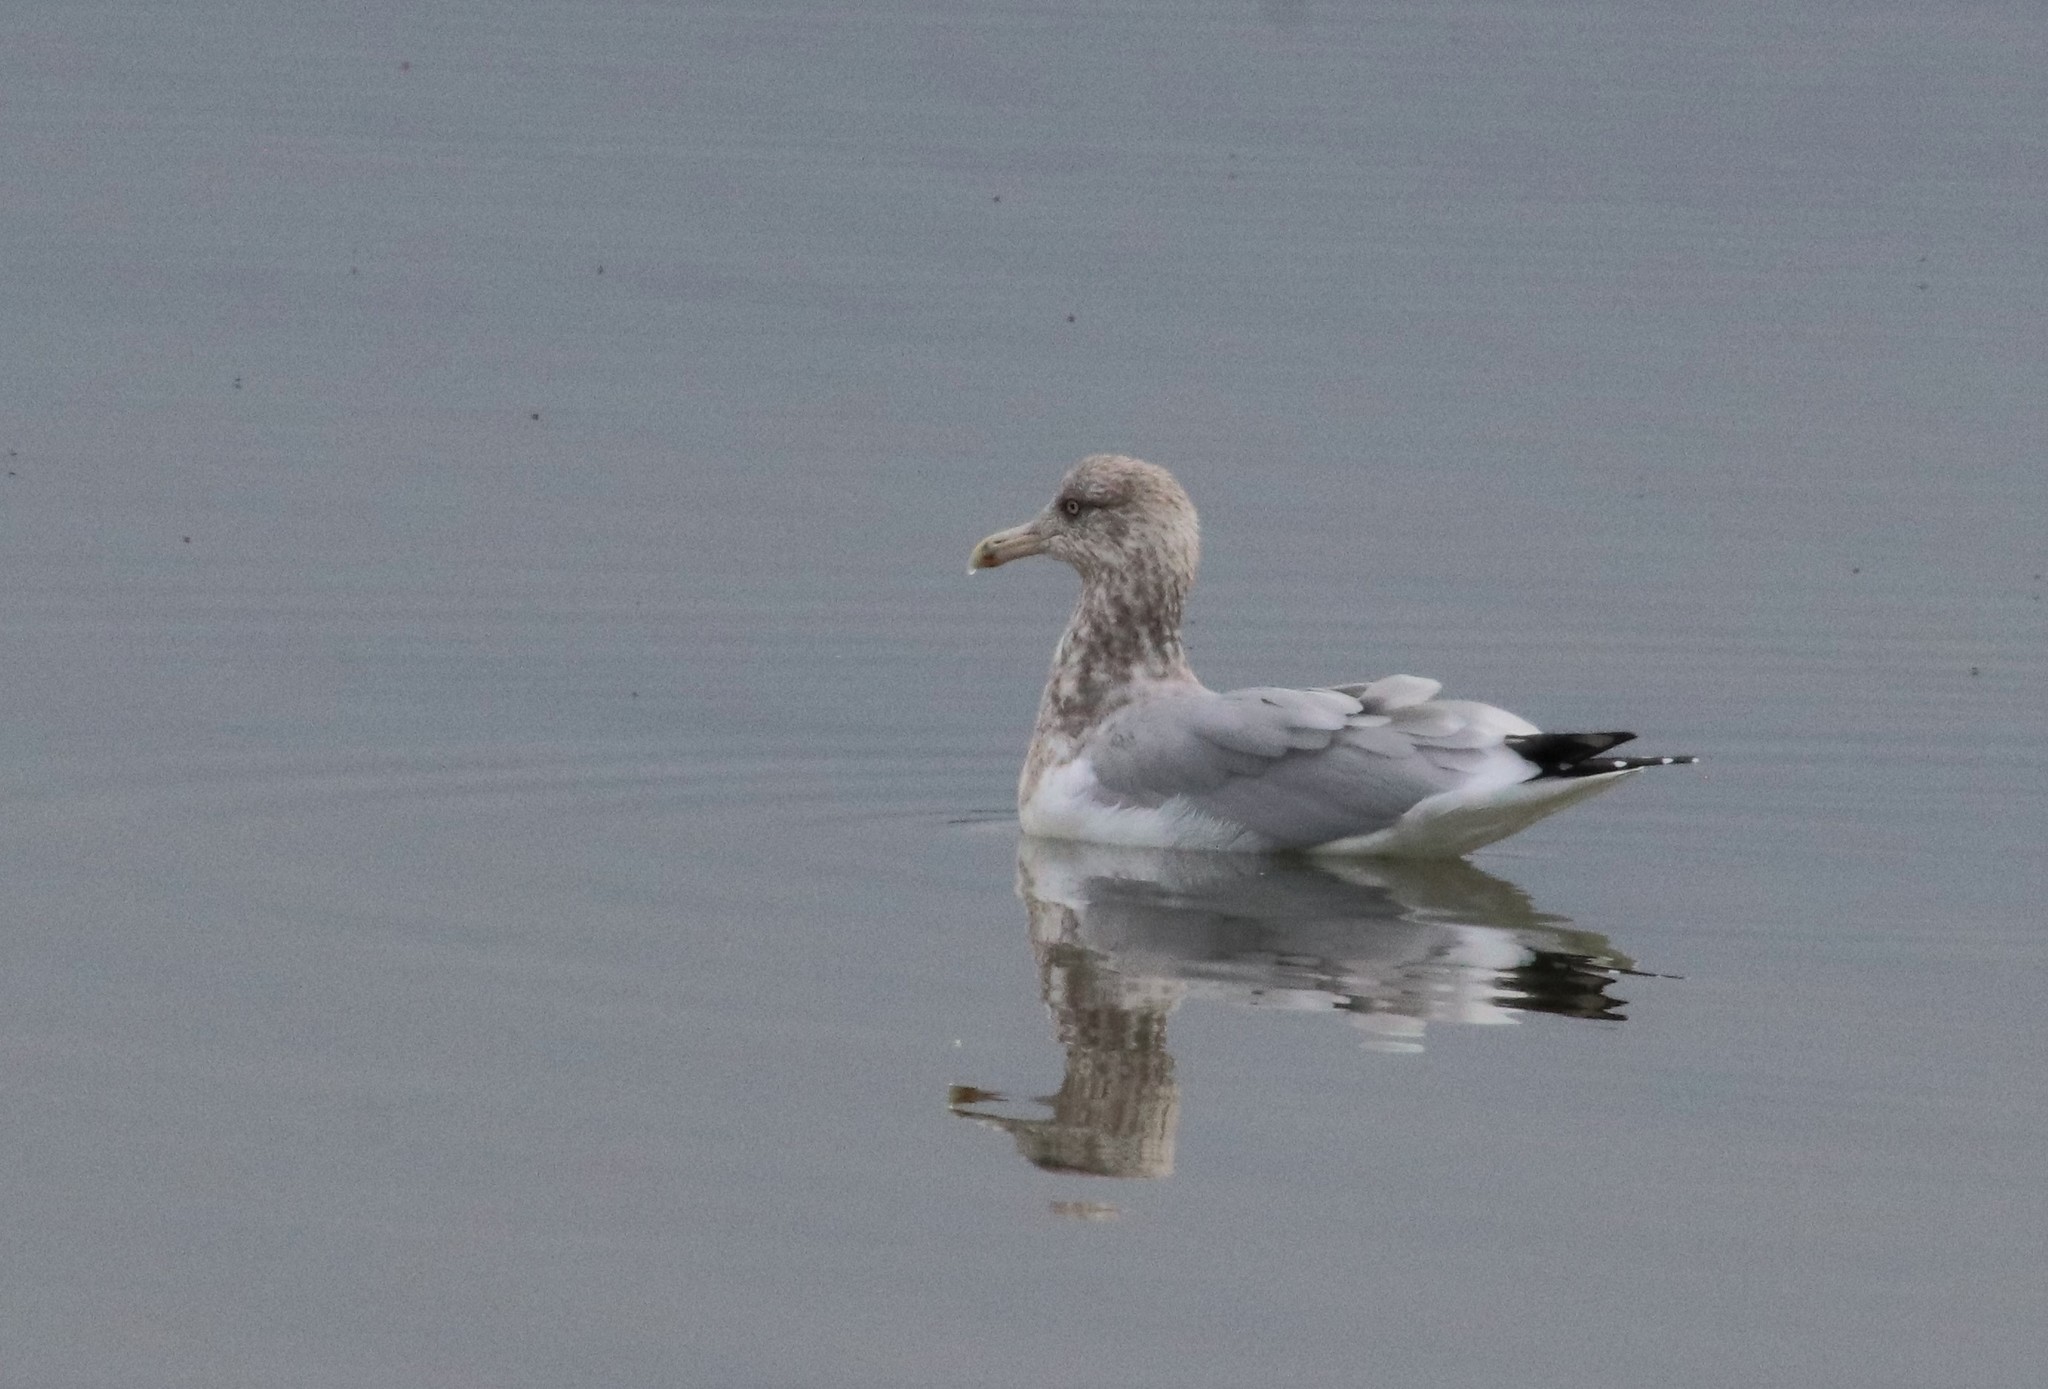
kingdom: Animalia
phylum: Chordata
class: Aves
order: Charadriiformes
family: Laridae
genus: Larus
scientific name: Larus argentatus
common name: Herring gull
